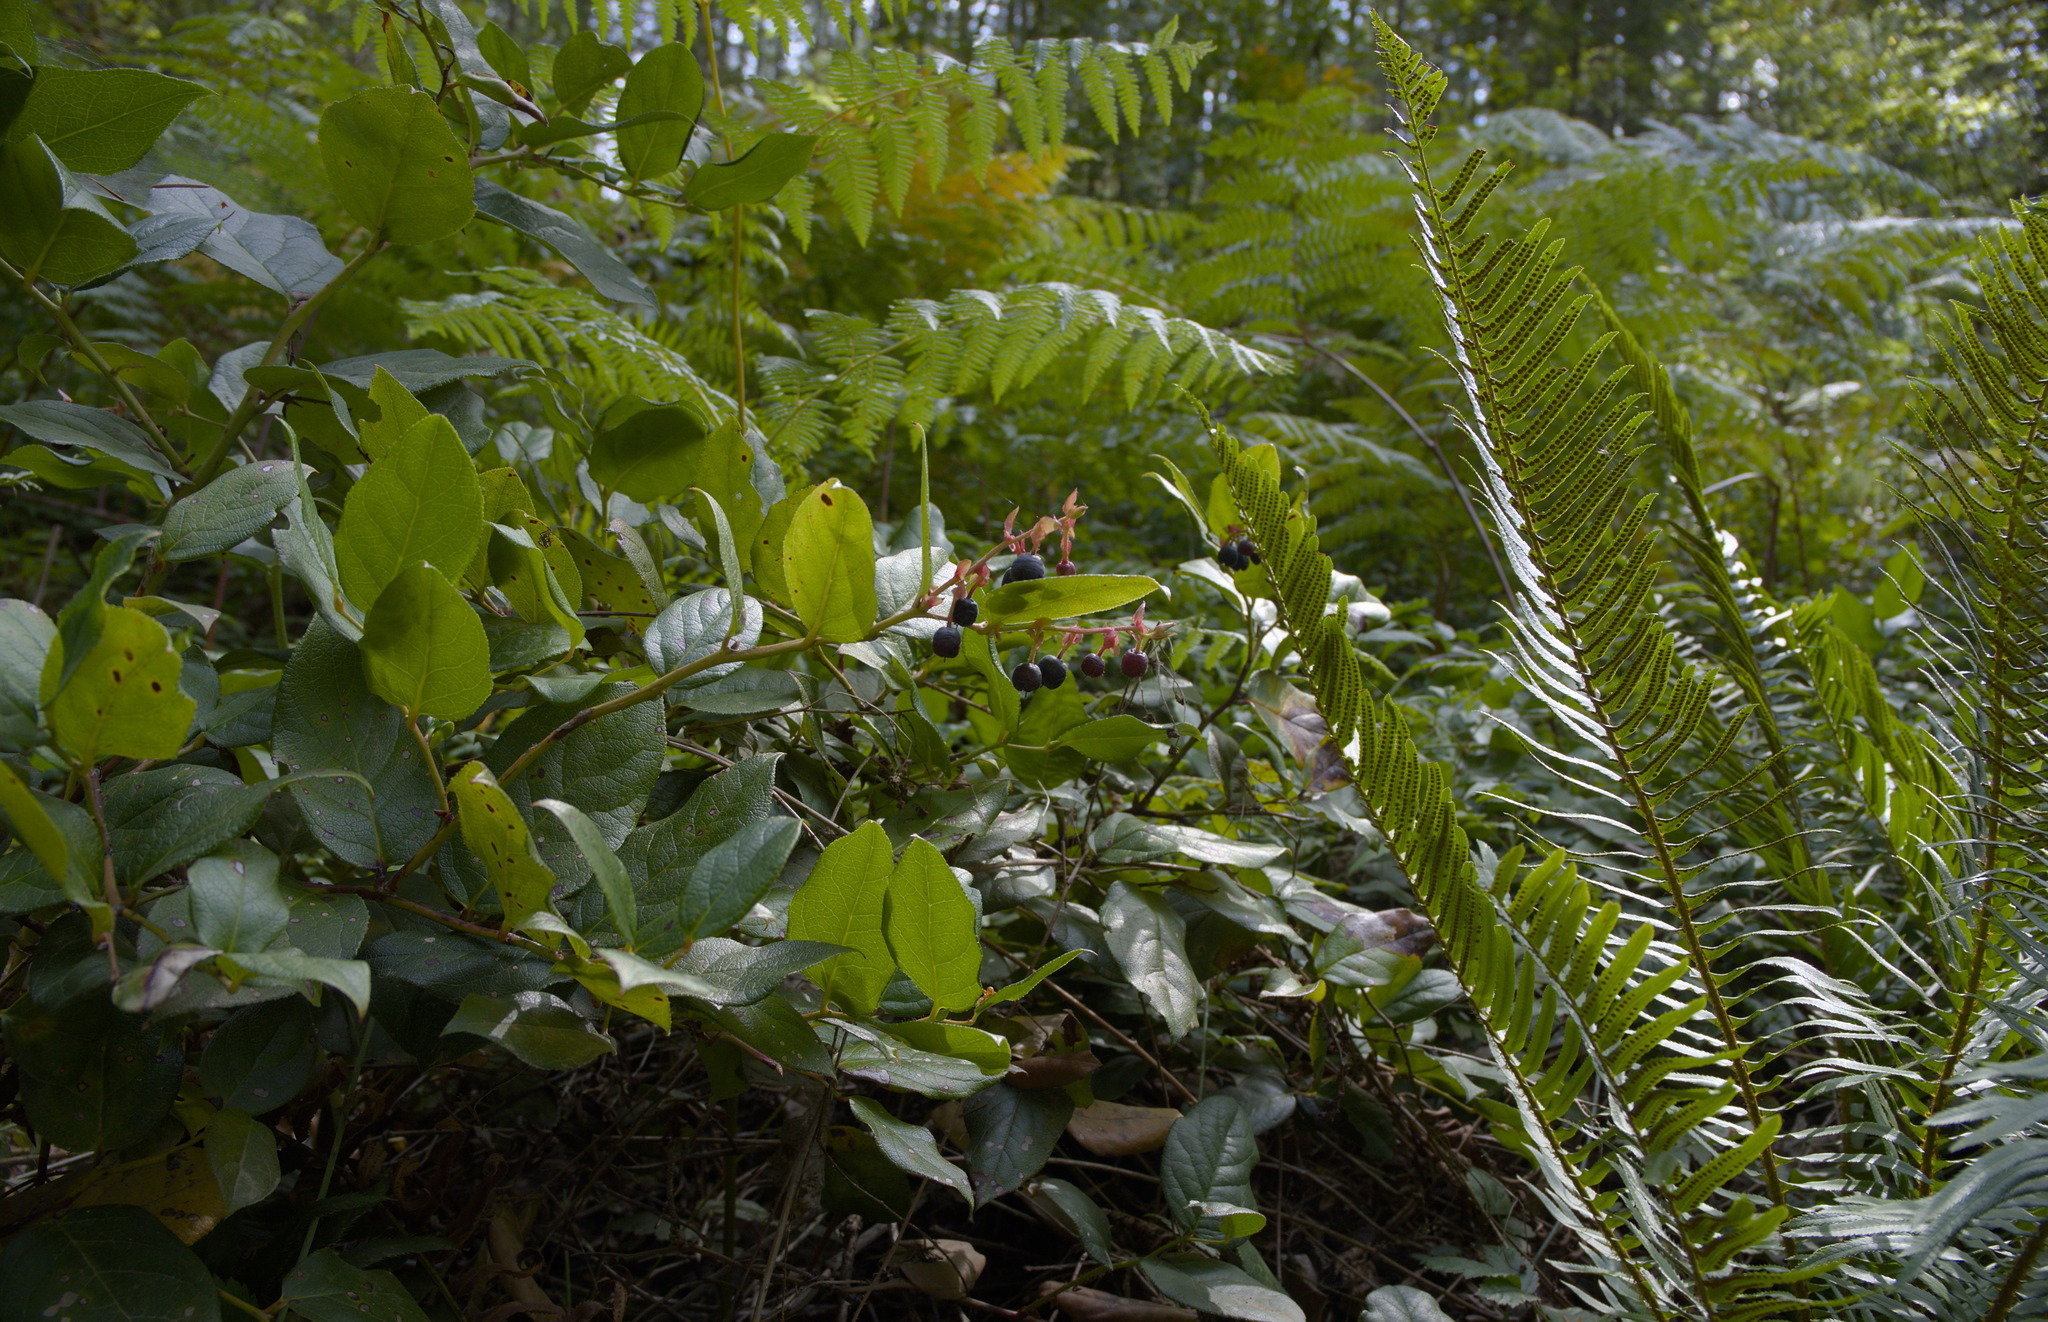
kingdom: Plantae
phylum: Tracheophyta
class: Magnoliopsida
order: Ericales
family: Ericaceae
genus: Gaultheria
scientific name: Gaultheria shallon
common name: Shallon
